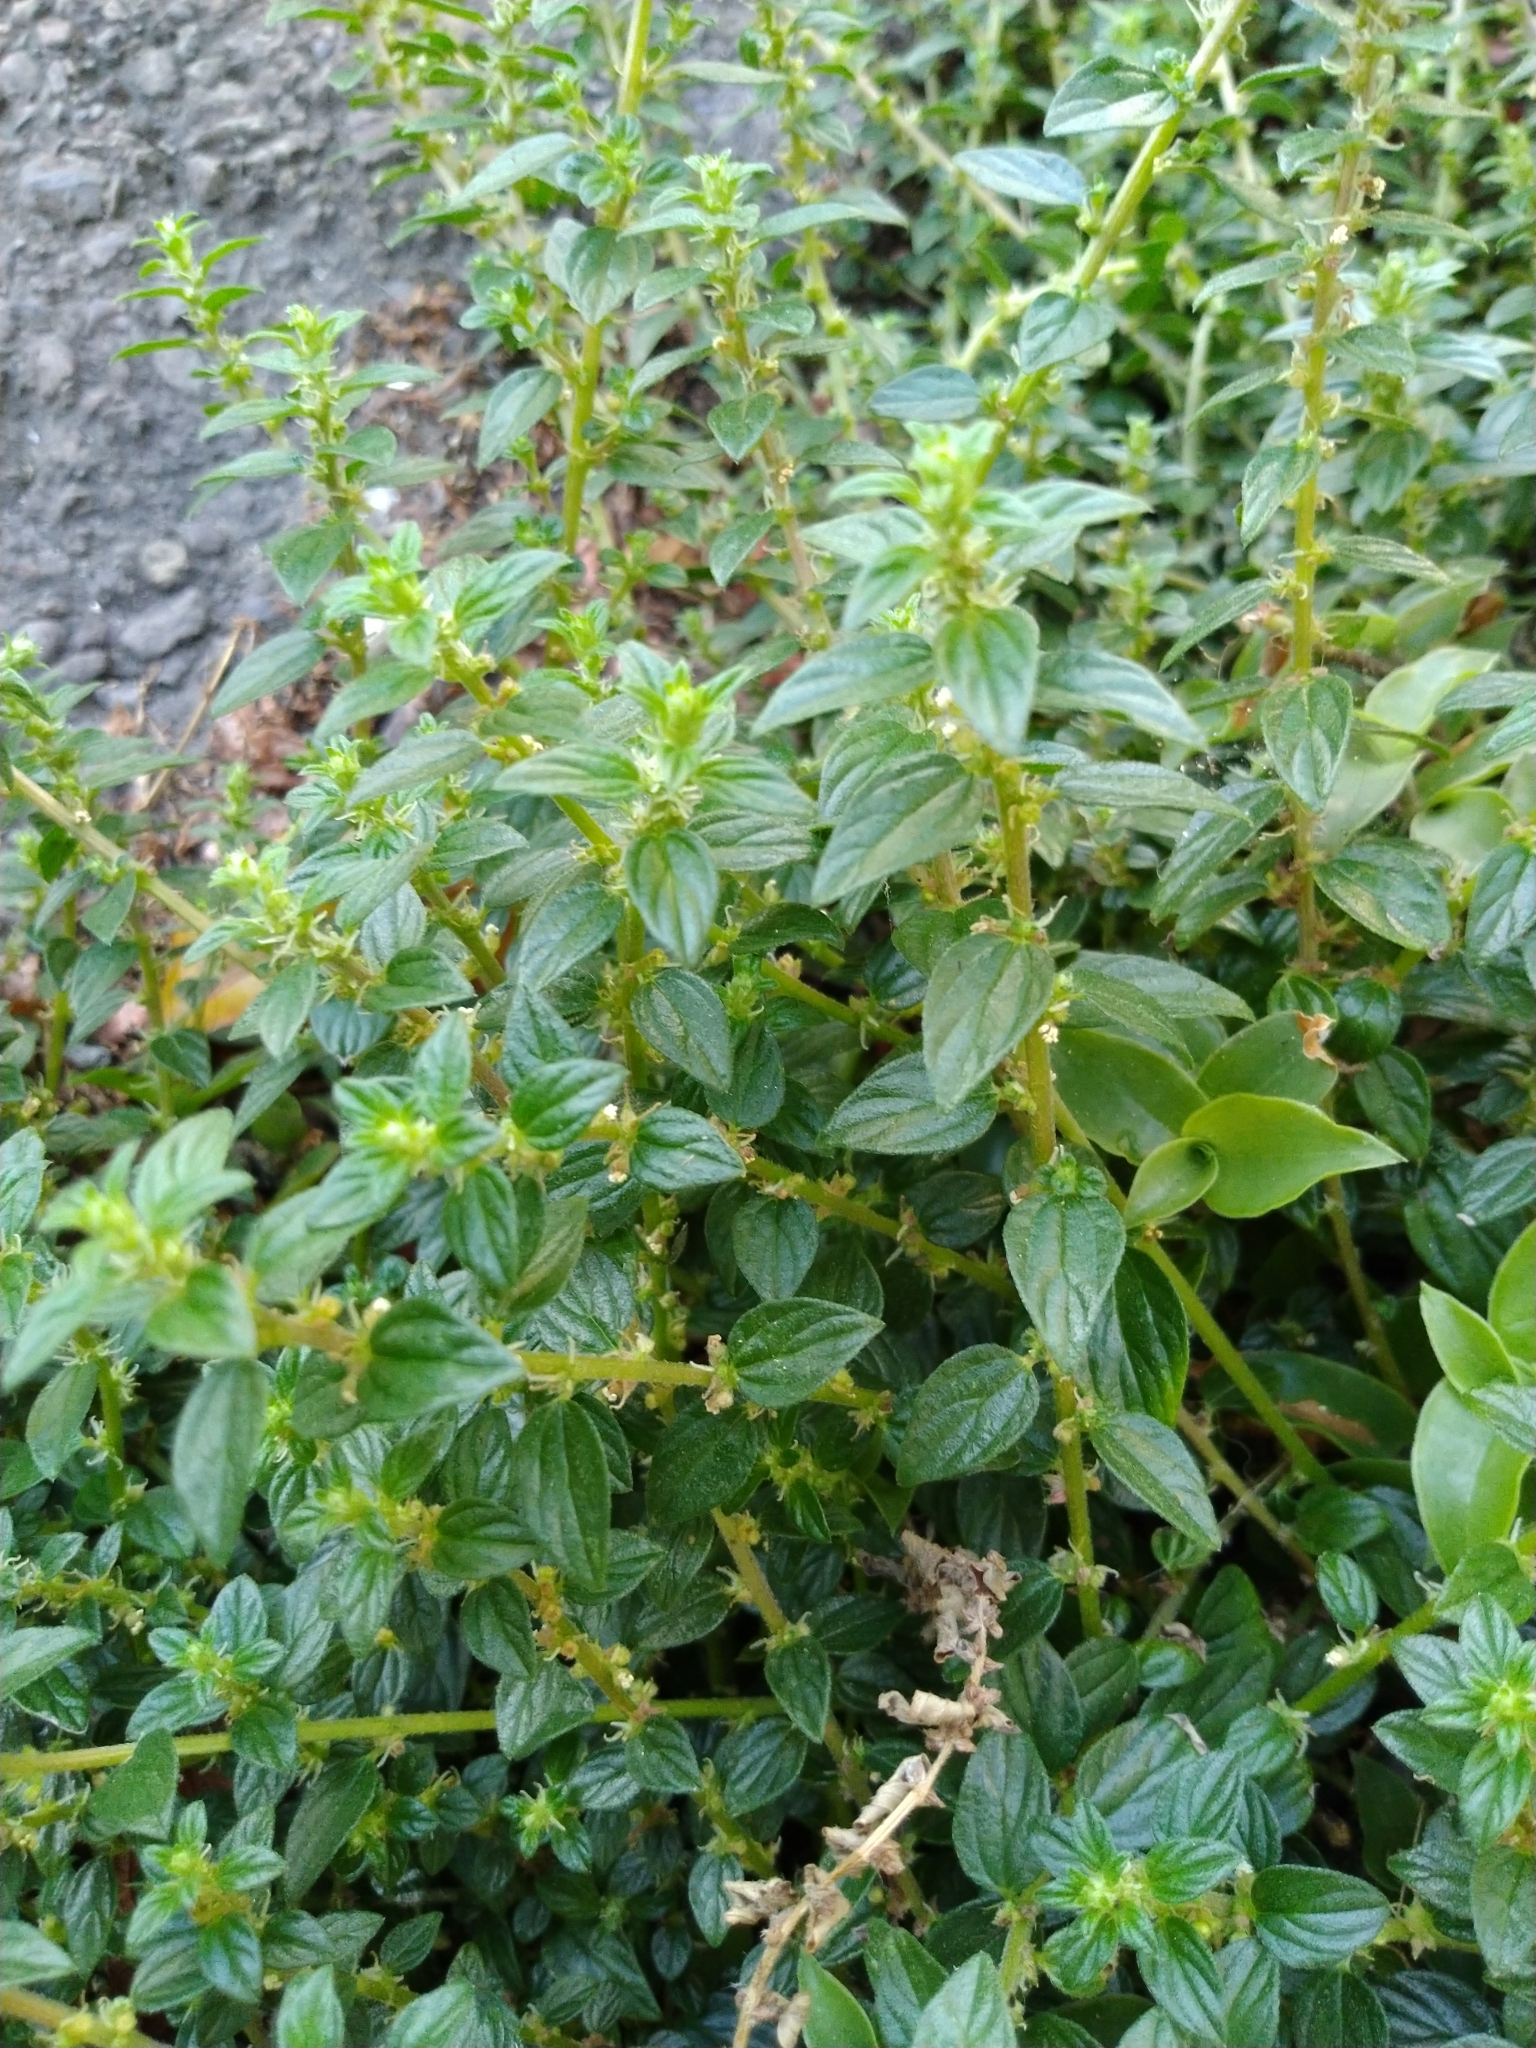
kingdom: Plantae
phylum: Tracheophyta
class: Magnoliopsida
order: Rosales
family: Urticaceae
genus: Pouzolzia
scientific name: Pouzolzia zeylanica
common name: Graceful pouzolzsbush
